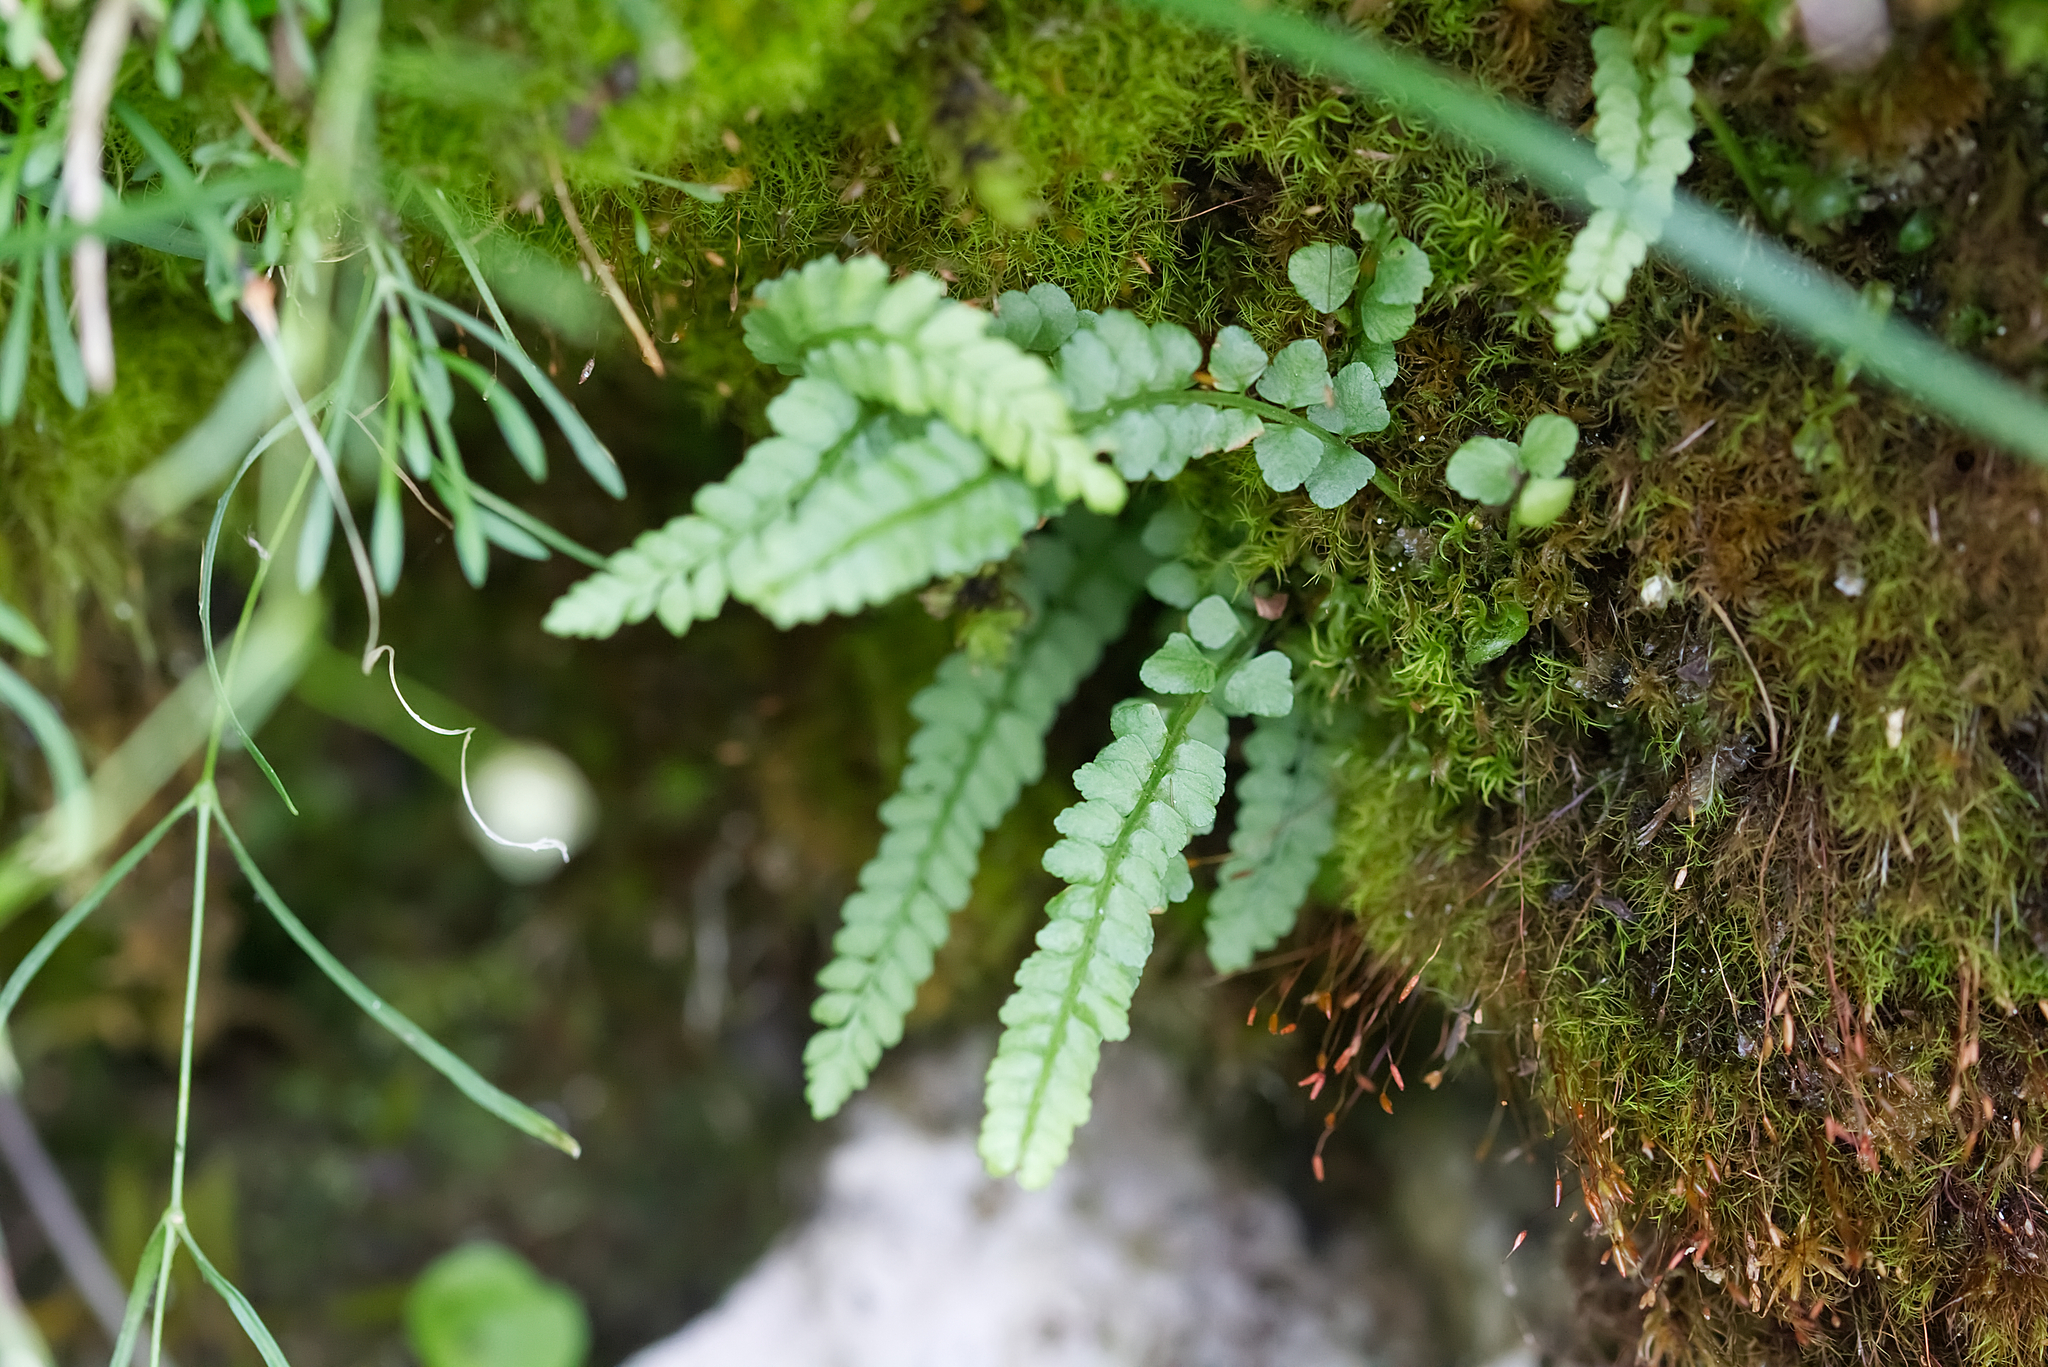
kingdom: Plantae
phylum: Tracheophyta
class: Polypodiopsida
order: Polypodiales
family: Aspleniaceae
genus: Asplenium
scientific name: Asplenium viride
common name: Green spleenwort
